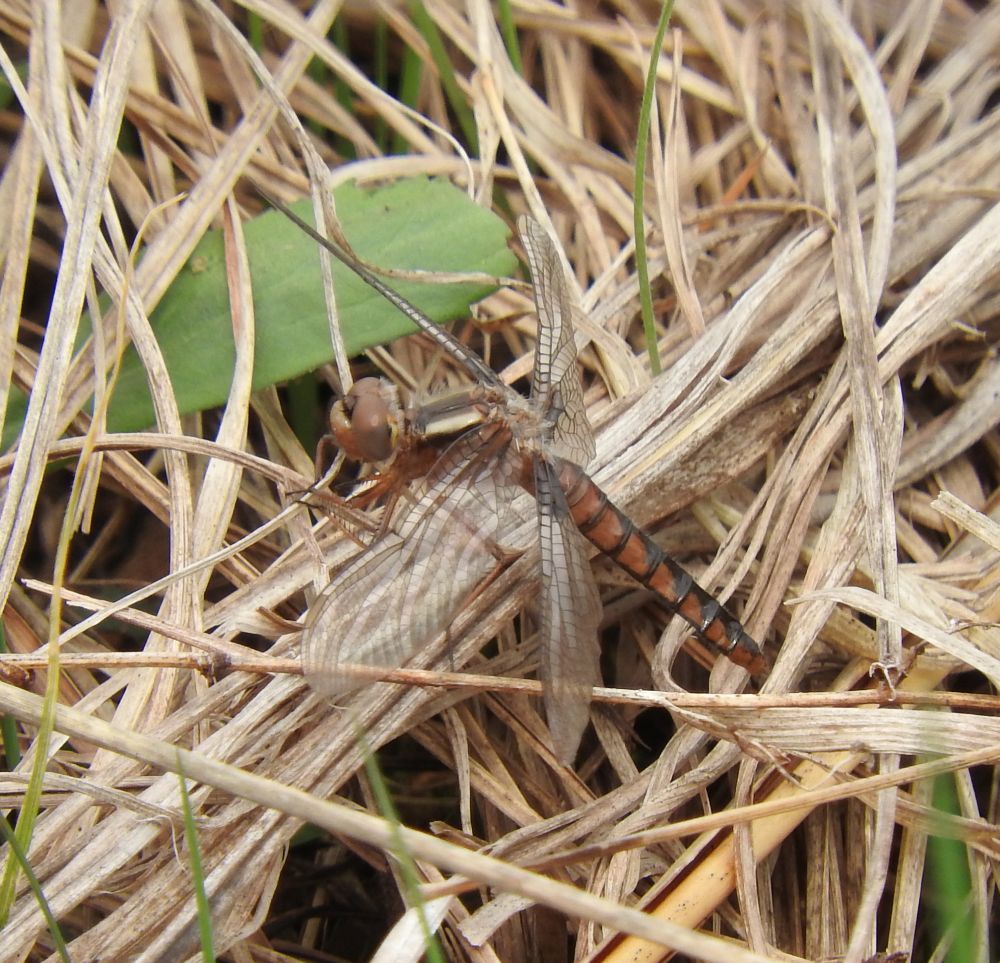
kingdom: Animalia
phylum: Arthropoda
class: Insecta
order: Odonata
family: Libellulidae
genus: Ladona
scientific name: Ladona deplanata
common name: Blue corporal
